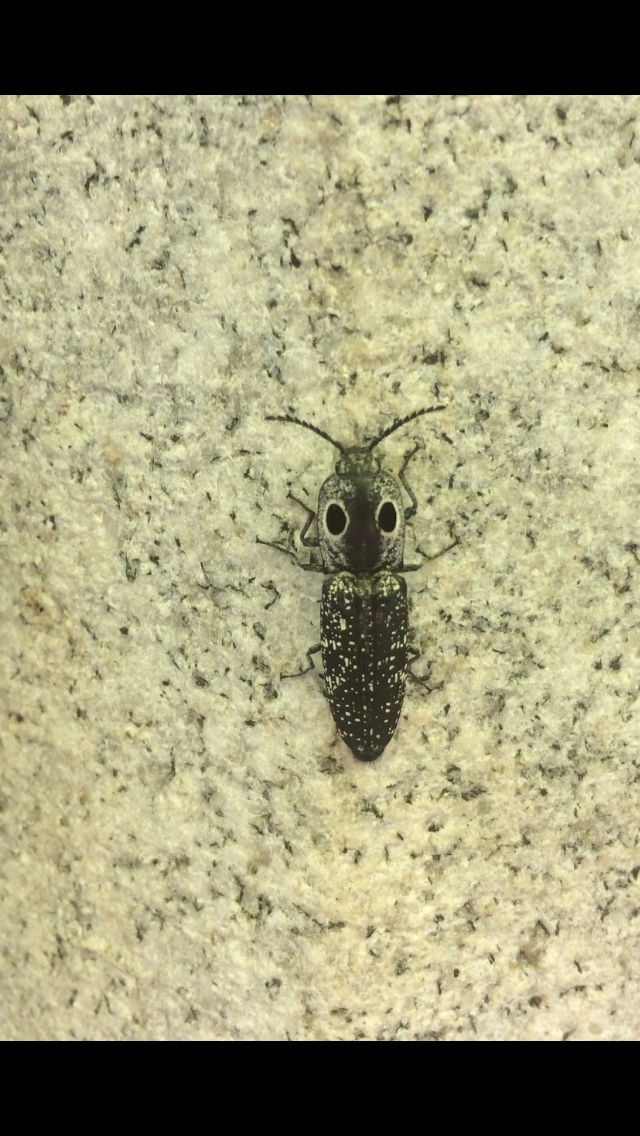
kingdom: Animalia
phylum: Arthropoda
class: Insecta
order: Coleoptera
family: Elateridae
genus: Alaus
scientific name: Alaus oculatus
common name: Eastern eyed click beetle
